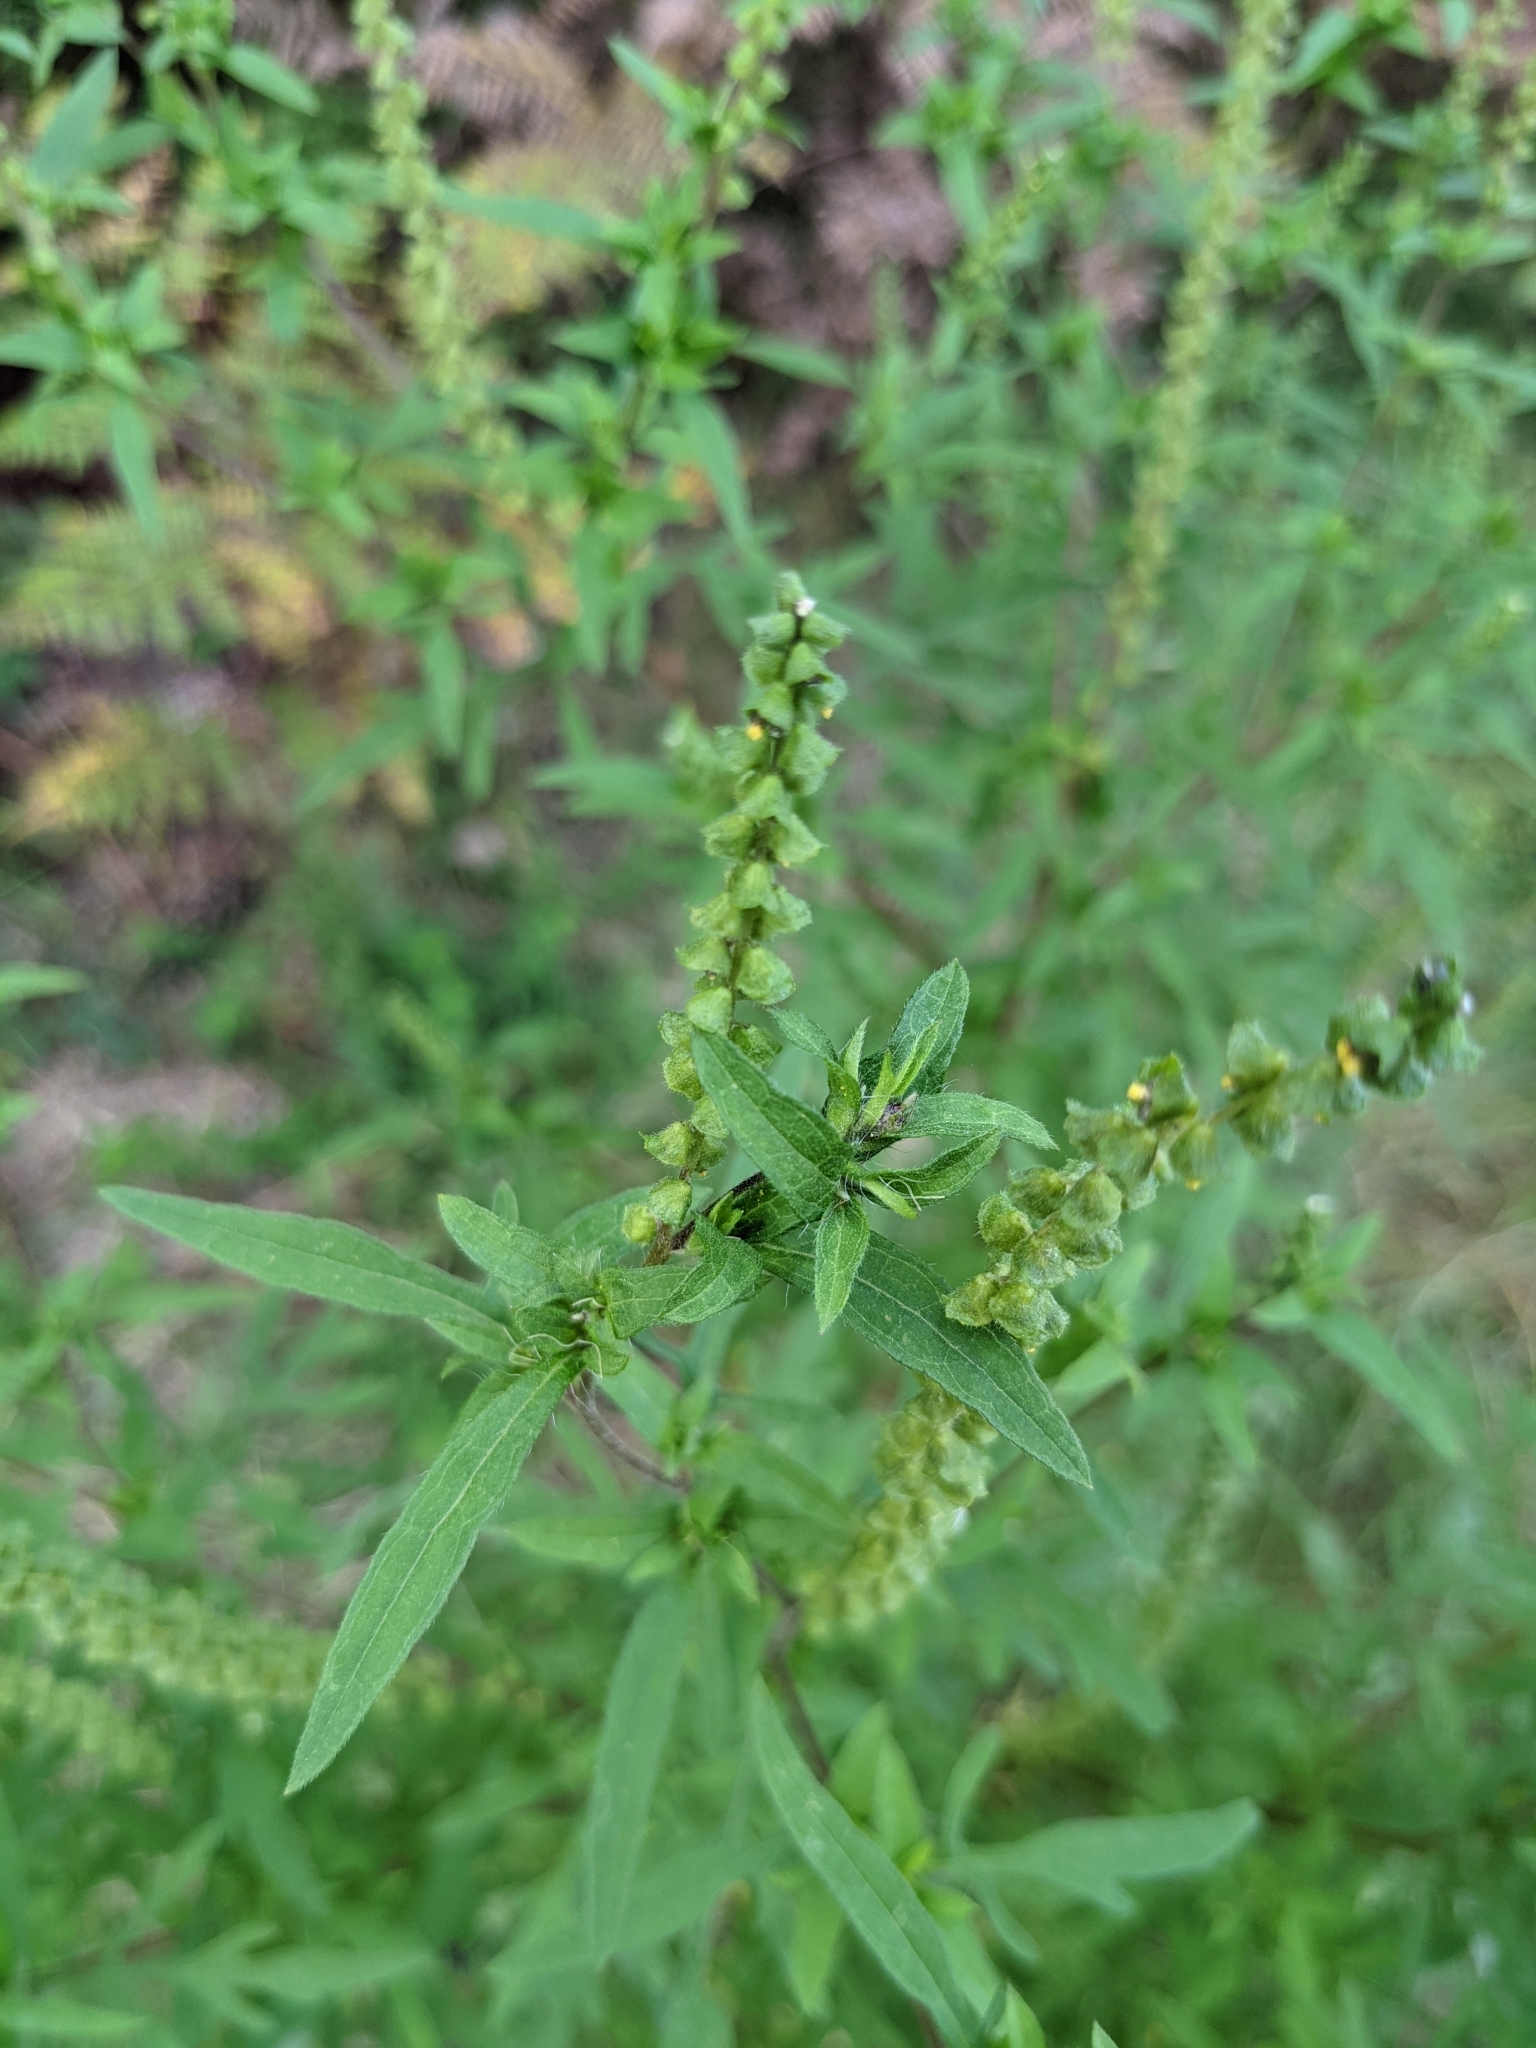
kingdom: Plantae
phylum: Tracheophyta
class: Magnoliopsida
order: Asterales
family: Asteraceae
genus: Ambrosia
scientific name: Ambrosia artemisiifolia
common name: Annual ragweed
